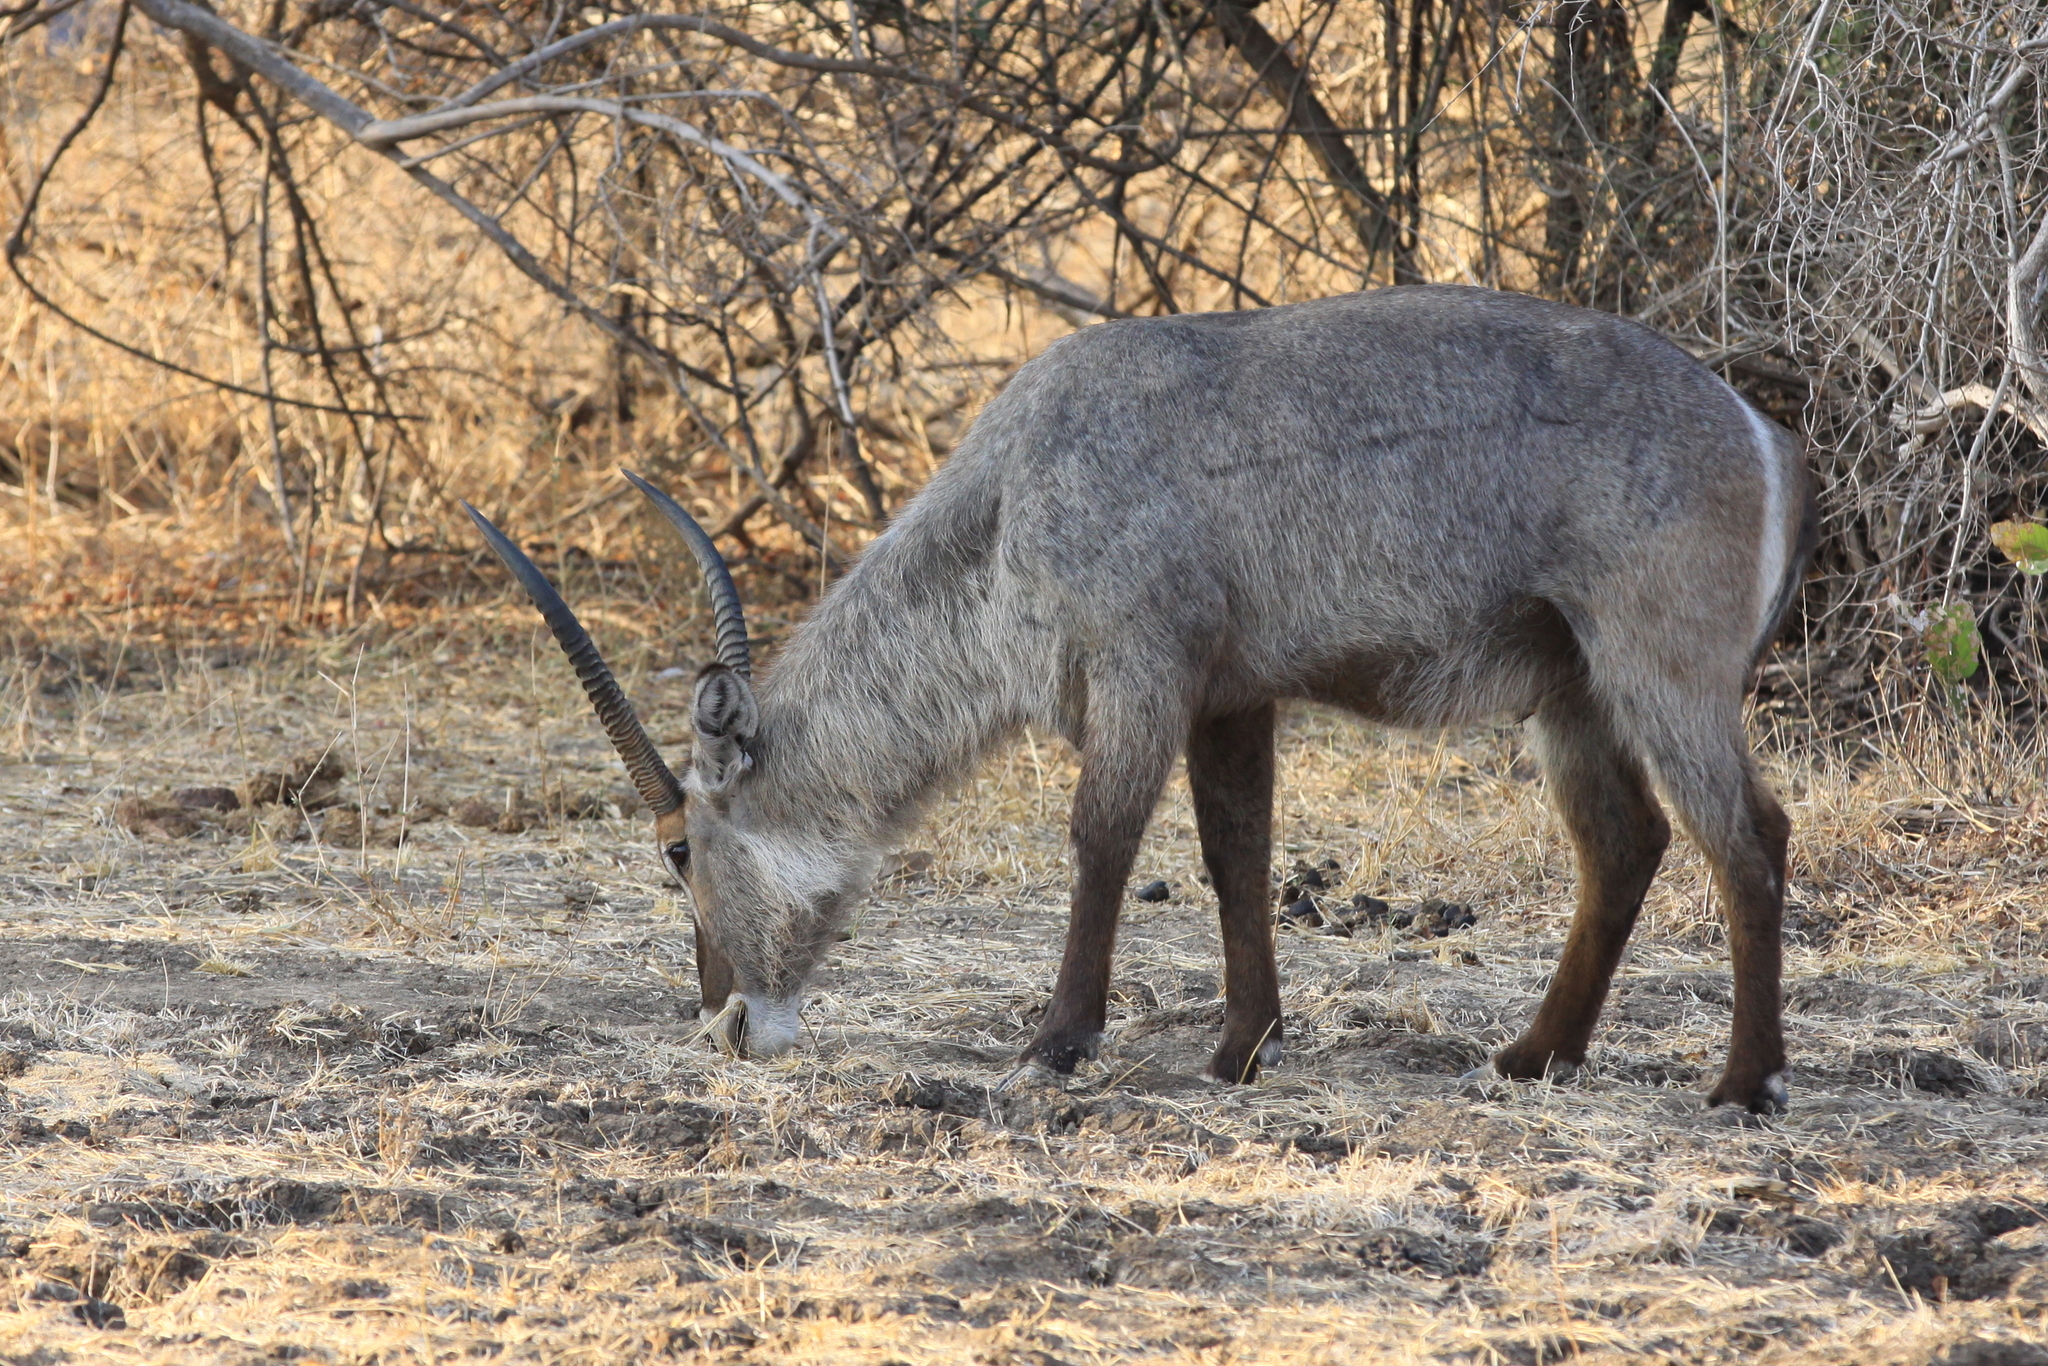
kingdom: Animalia
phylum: Chordata
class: Mammalia
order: Artiodactyla
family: Bovidae
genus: Kobus
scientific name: Kobus ellipsiprymnus
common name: Waterbuck
